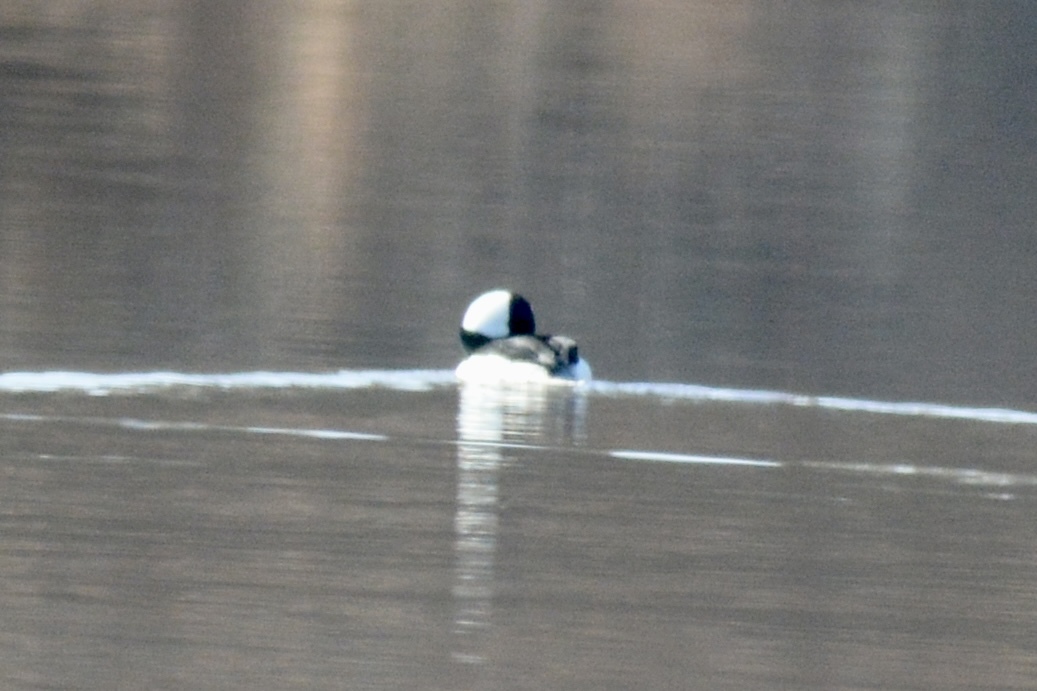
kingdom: Animalia
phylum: Chordata
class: Aves
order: Anseriformes
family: Anatidae
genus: Bucephala
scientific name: Bucephala albeola
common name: Bufflehead
